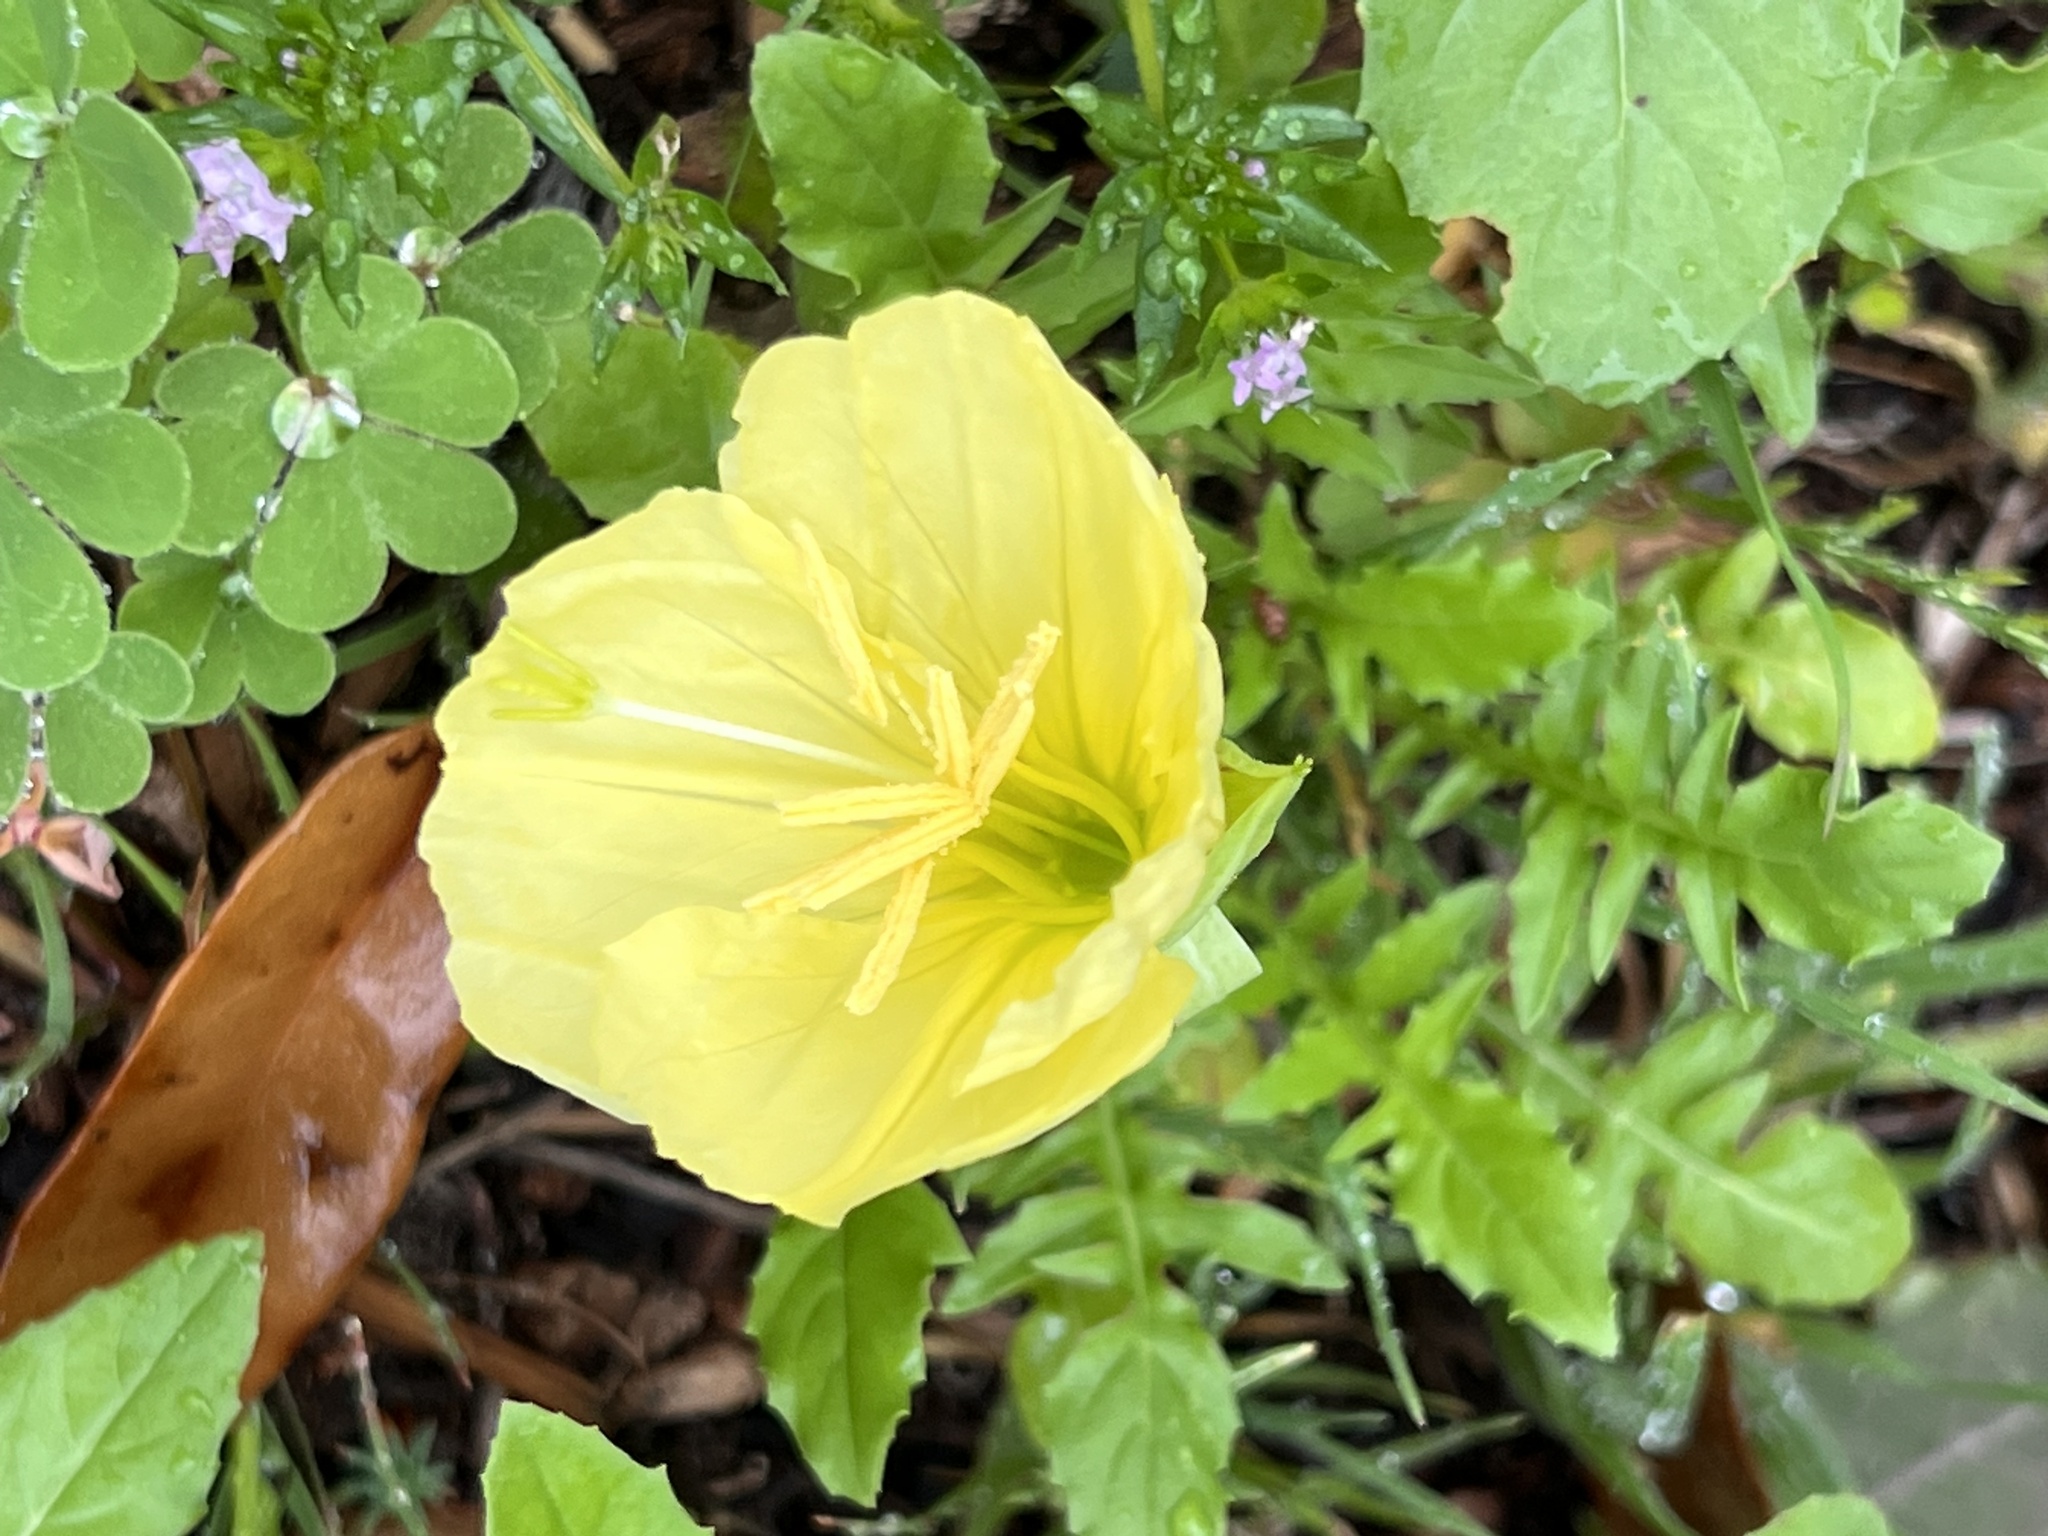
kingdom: Plantae
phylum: Tracheophyta
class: Magnoliopsida
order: Myrtales
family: Onagraceae
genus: Oenothera
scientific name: Oenothera triloba
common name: Sessile evening-primrose
